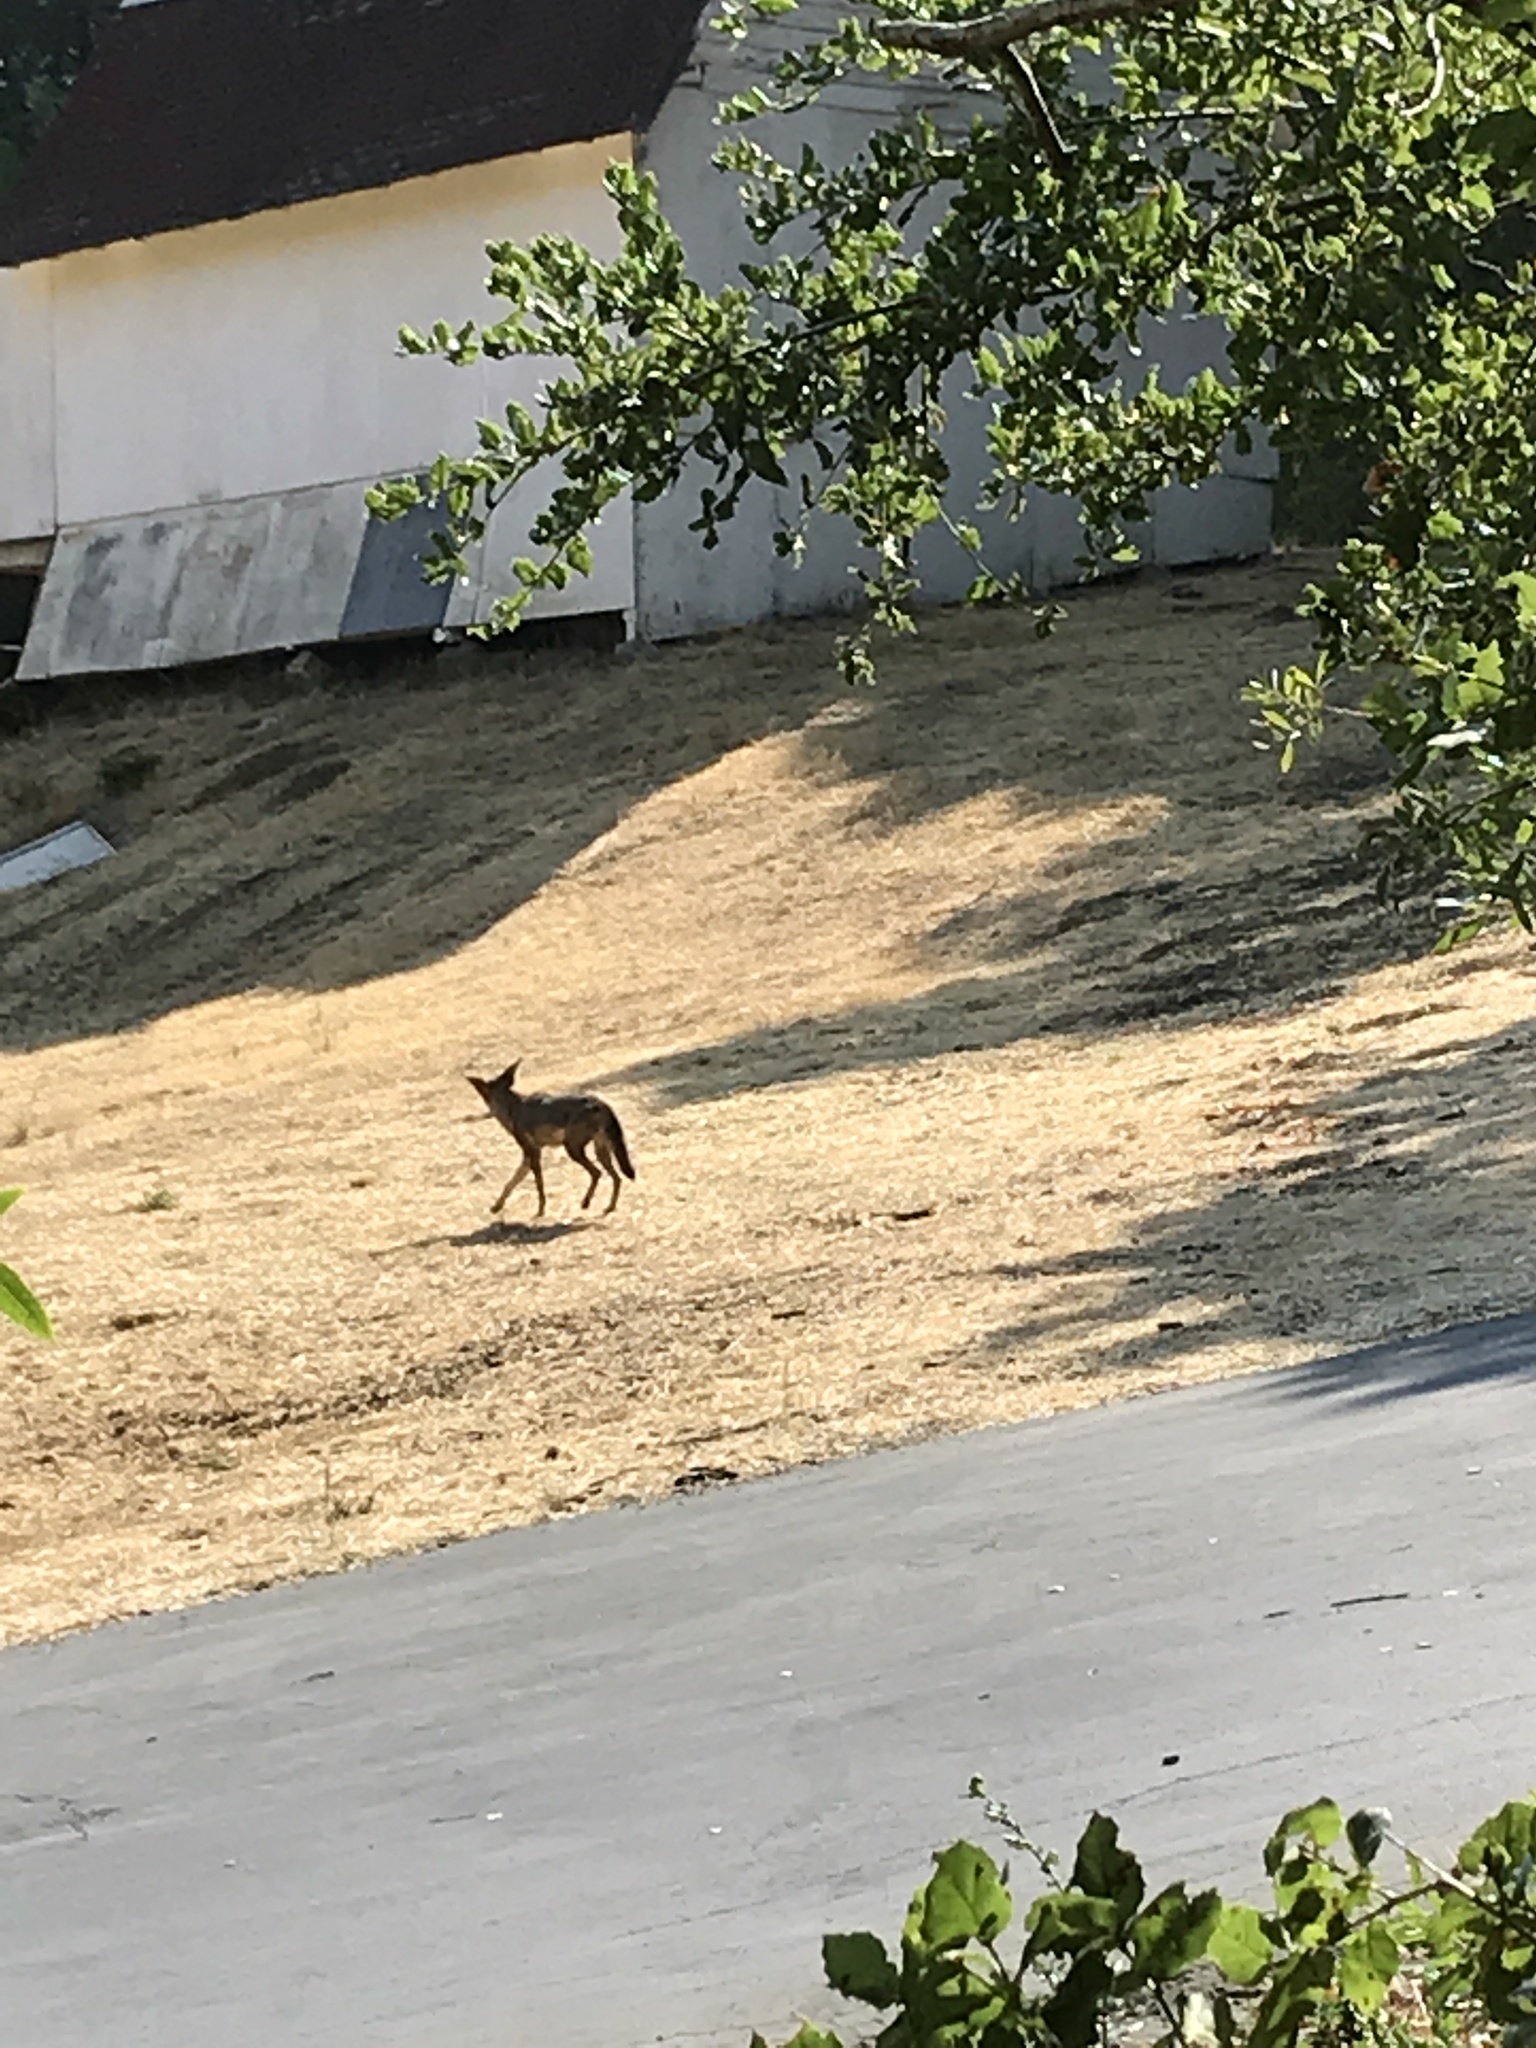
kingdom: Animalia
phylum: Chordata
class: Mammalia
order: Carnivora
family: Canidae
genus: Canis
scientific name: Canis latrans
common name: Coyote
